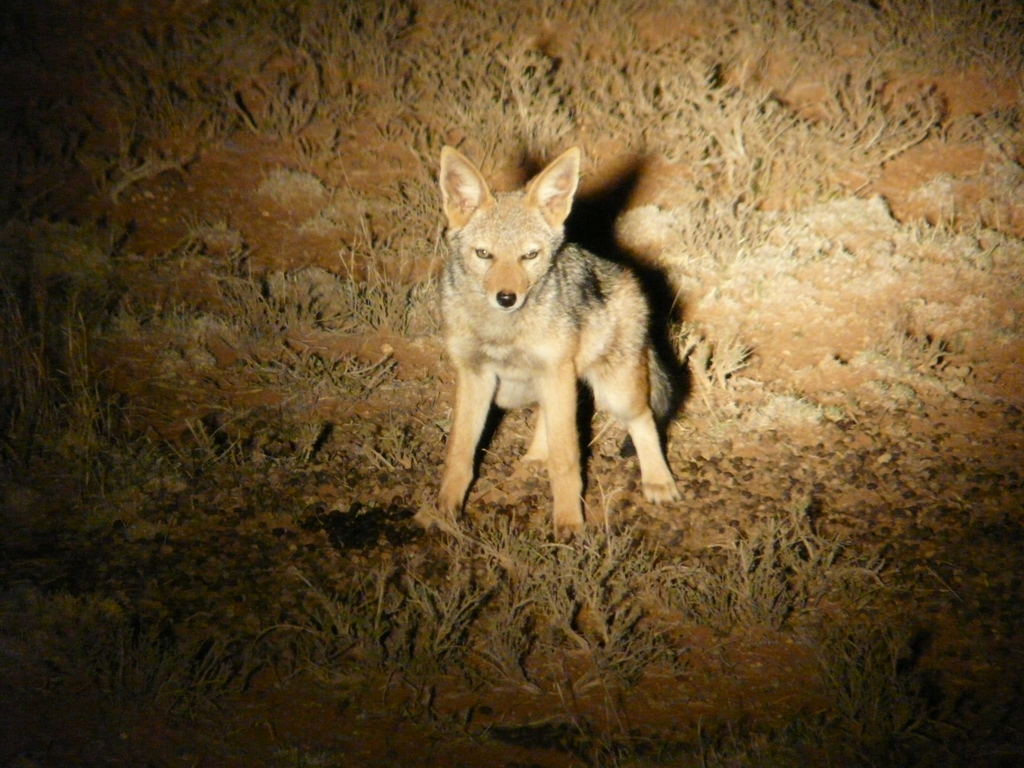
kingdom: Animalia
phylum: Chordata
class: Mammalia
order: Carnivora
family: Canidae
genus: Lupulella
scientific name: Lupulella
